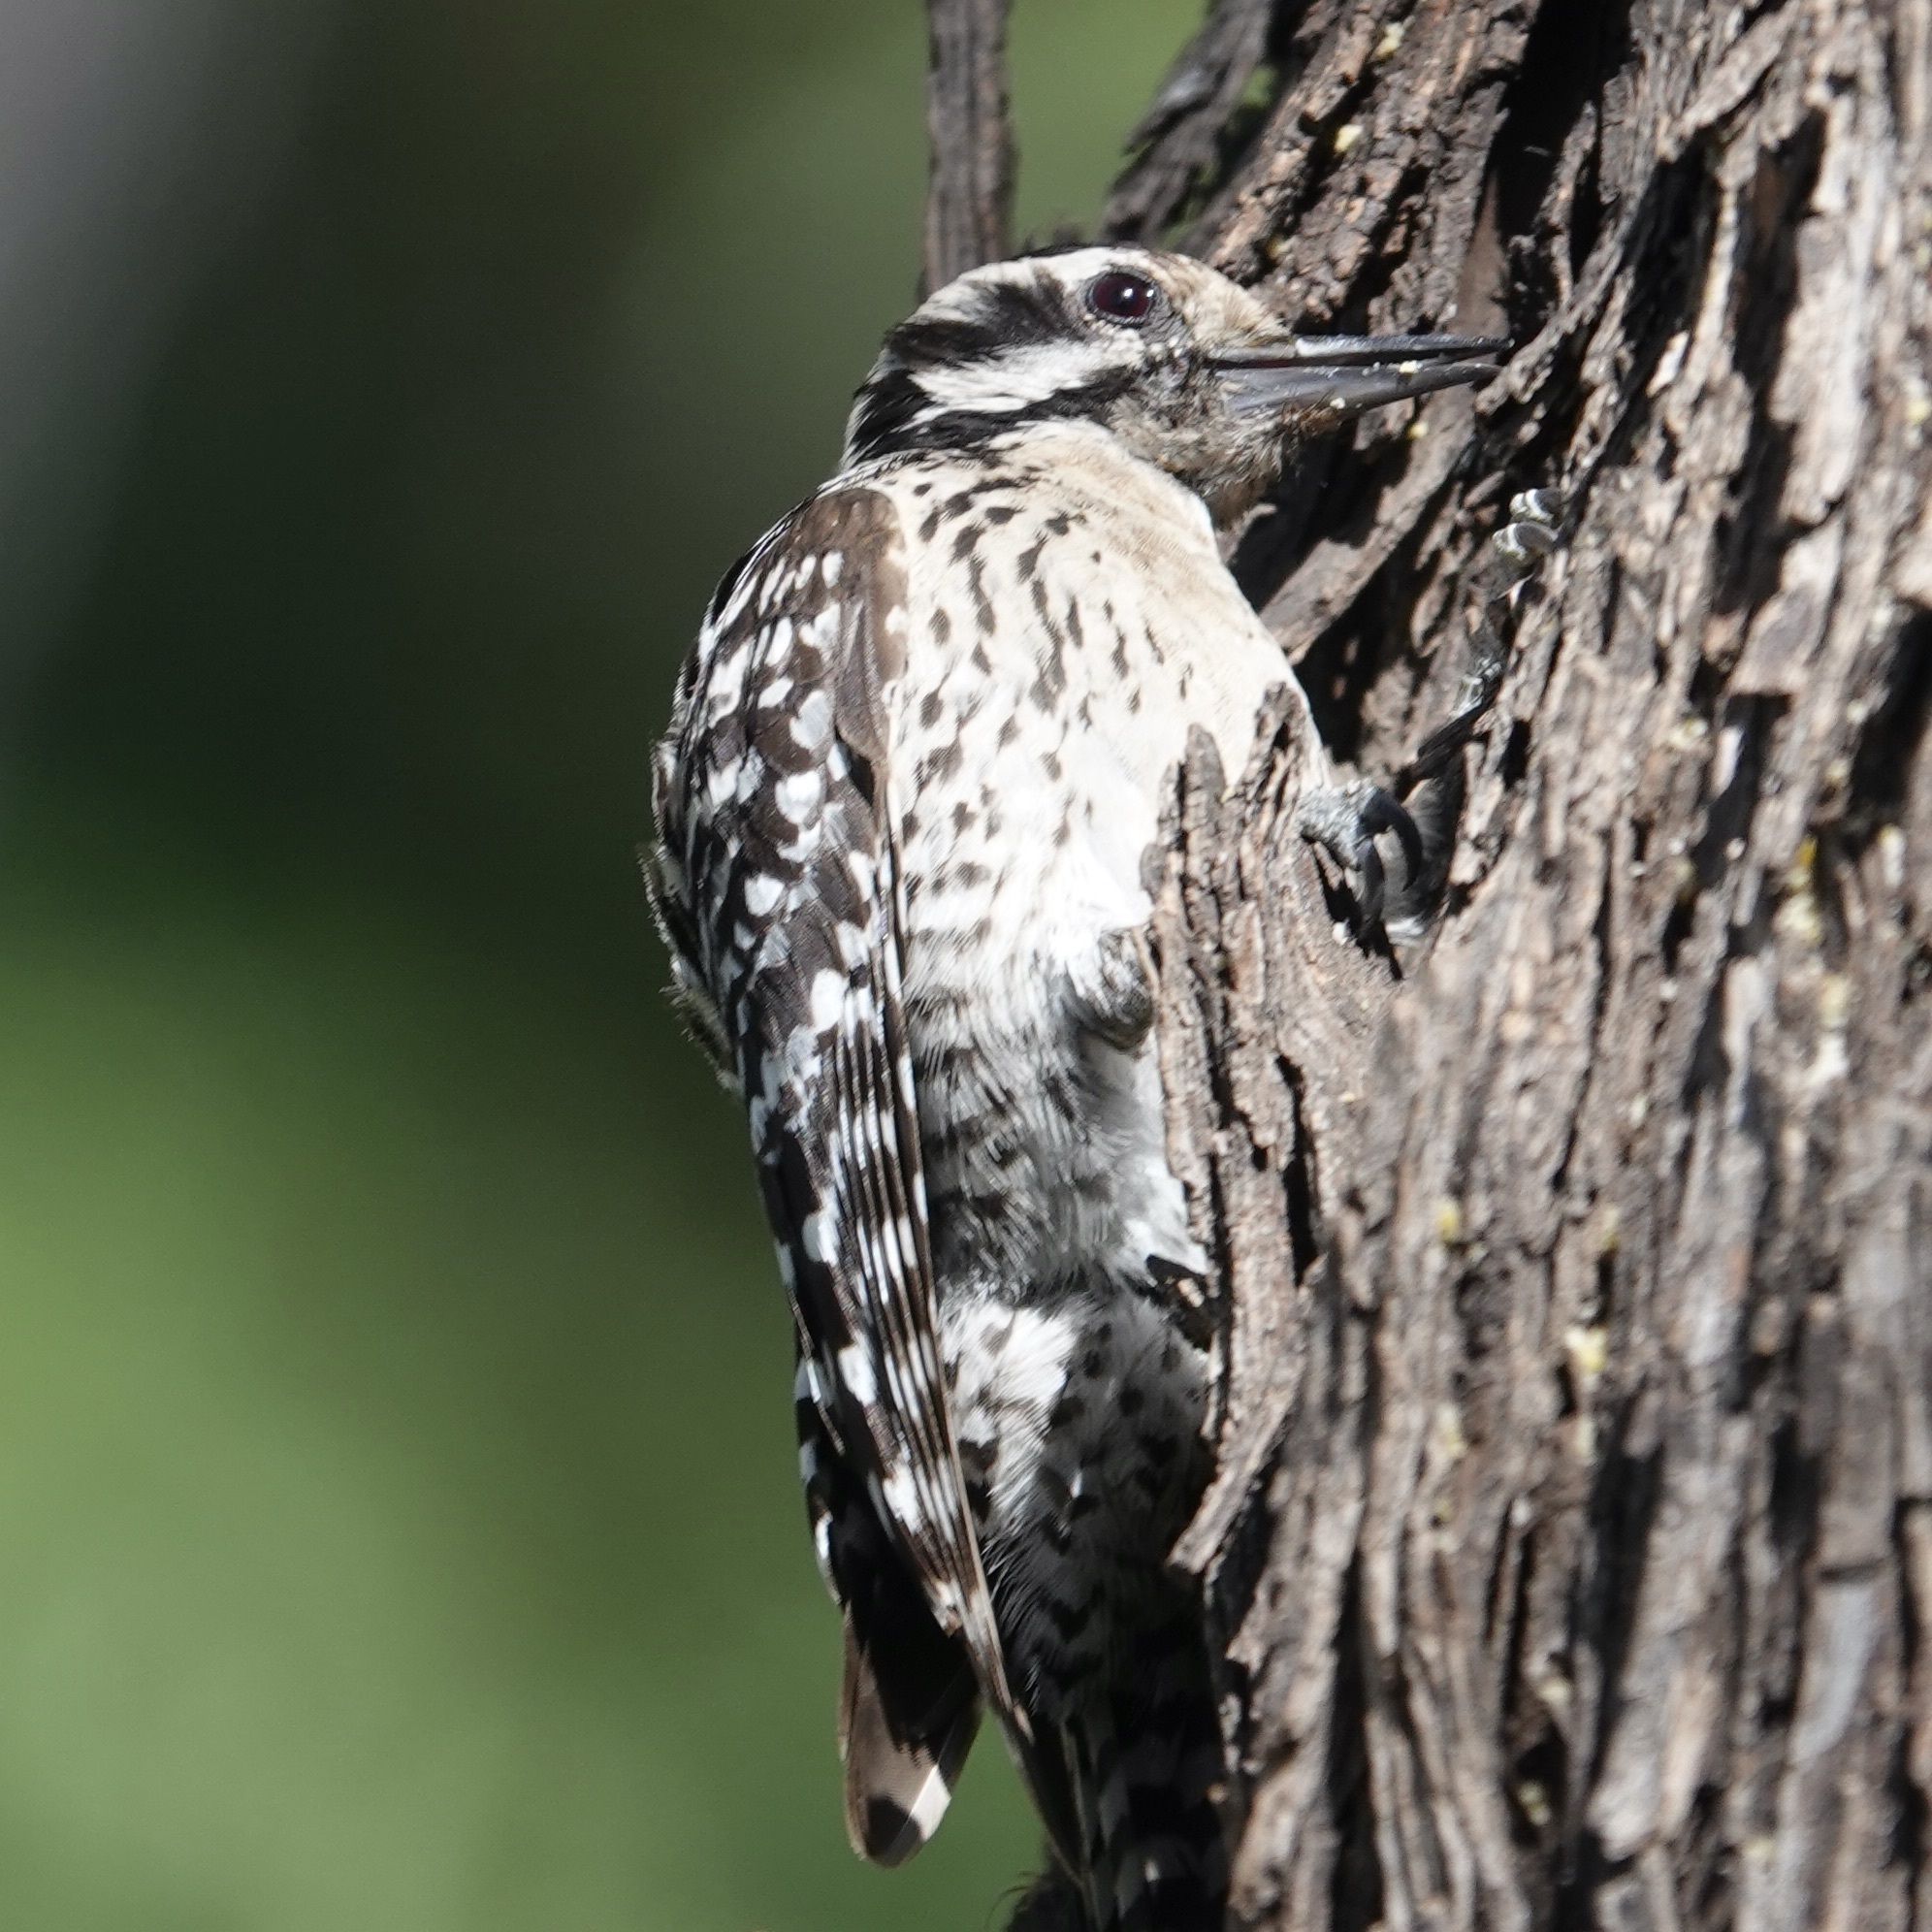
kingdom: Animalia
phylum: Chordata
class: Aves
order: Piciformes
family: Picidae
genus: Dryobates
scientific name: Dryobates scalaris
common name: Ladder-backed woodpecker
